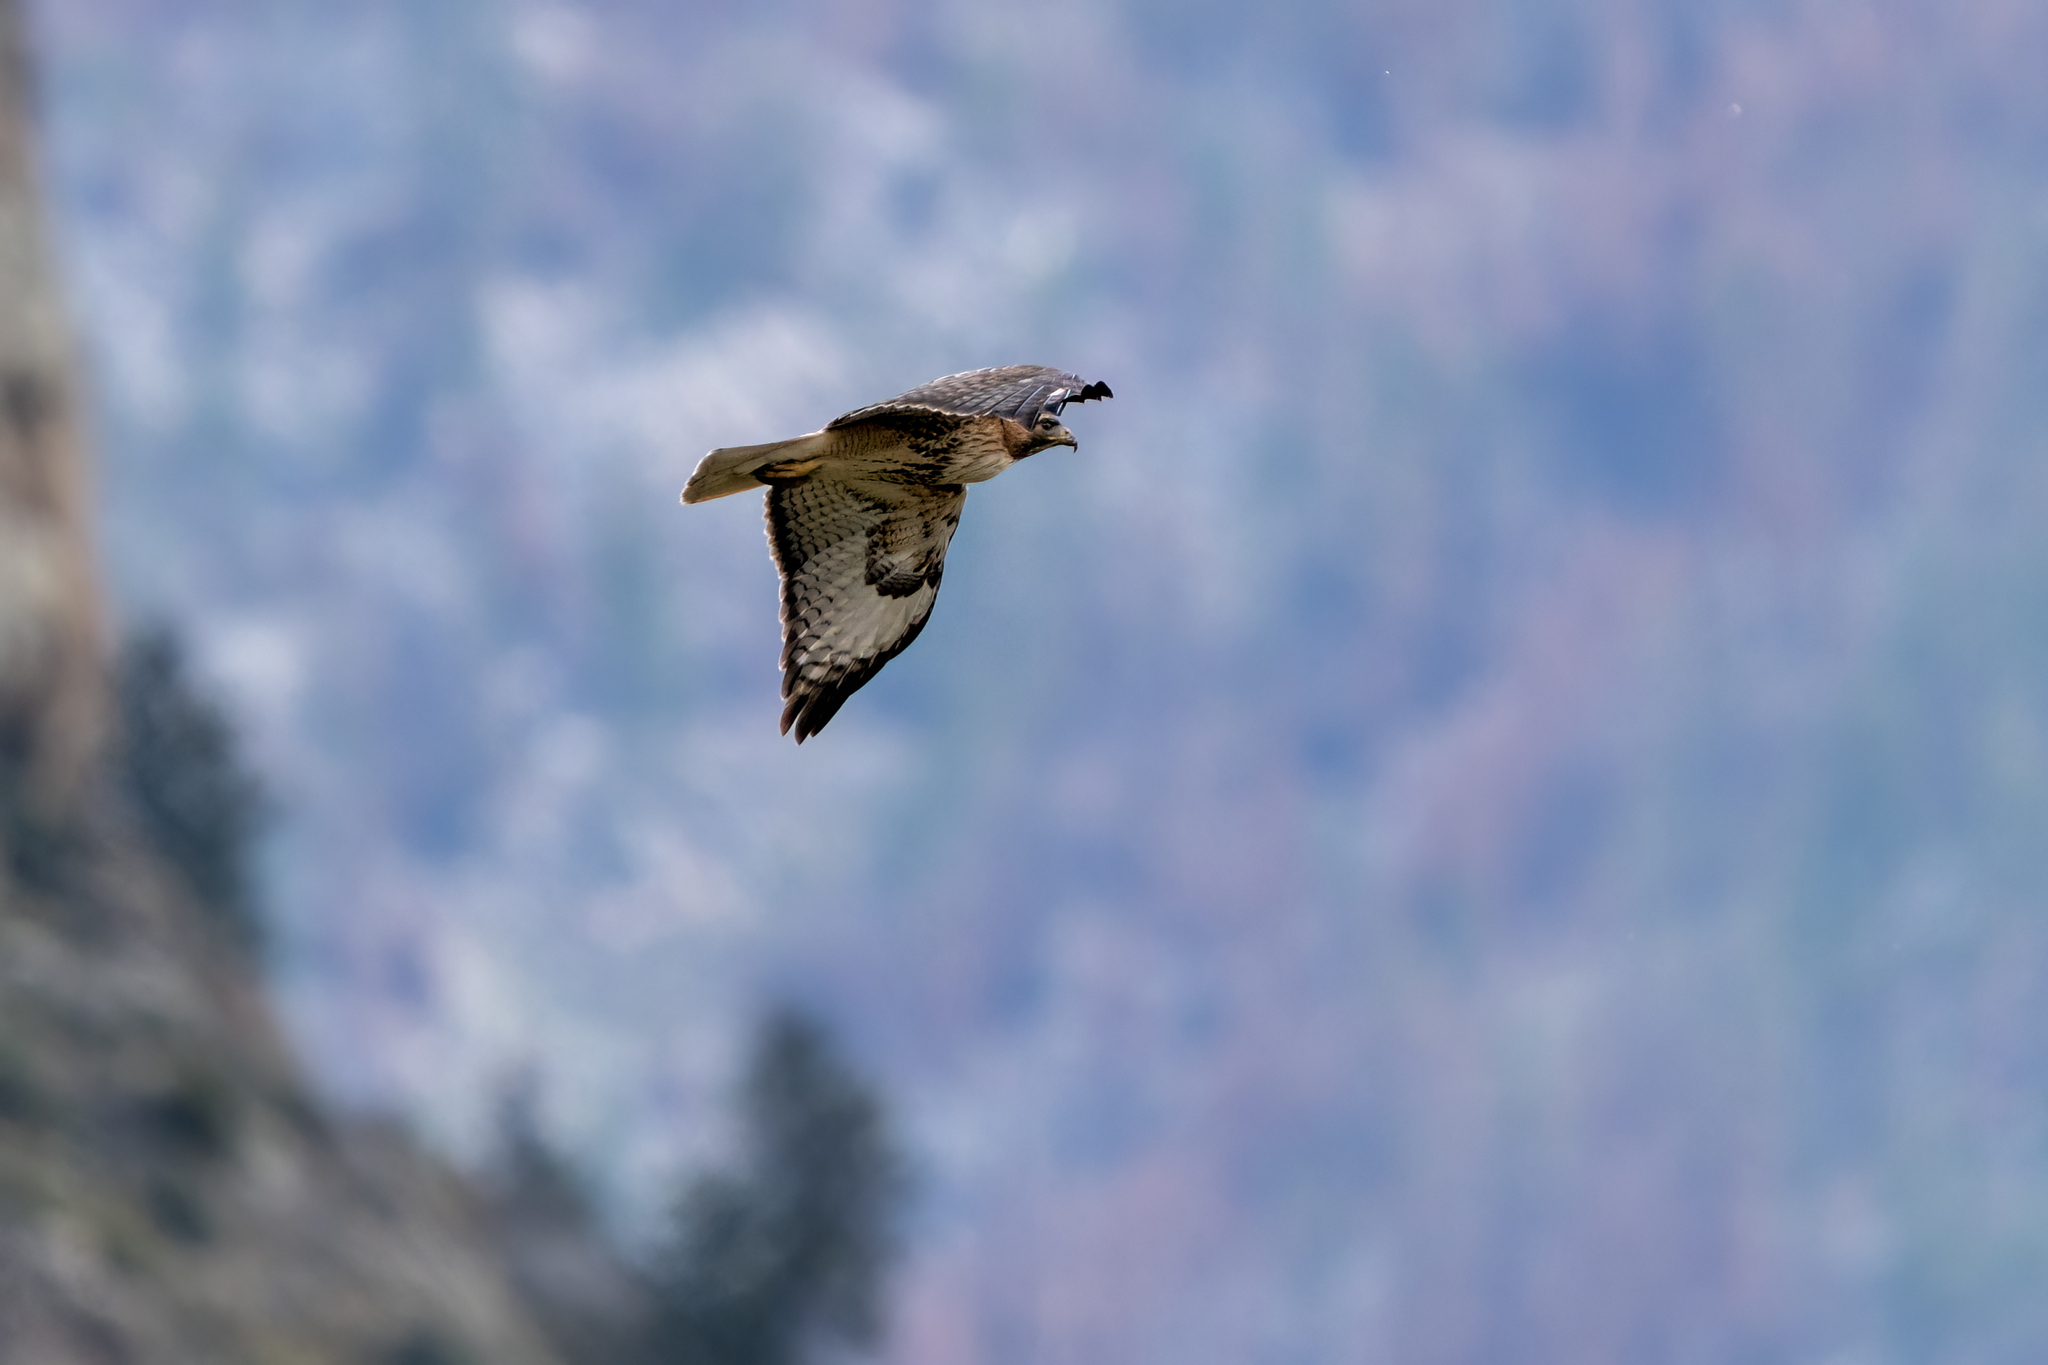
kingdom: Animalia
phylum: Chordata
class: Aves
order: Accipitriformes
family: Accipitridae
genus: Buteo
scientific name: Buteo jamaicensis
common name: Red-tailed hawk
